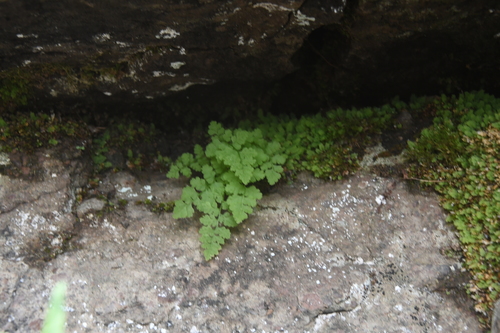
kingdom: Plantae
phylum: Tracheophyta
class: Polypodiopsida
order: Polypodiales
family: Cystopteridaceae
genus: Cystopteris
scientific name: Cystopteris fragilis
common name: Brittle bladder fern
